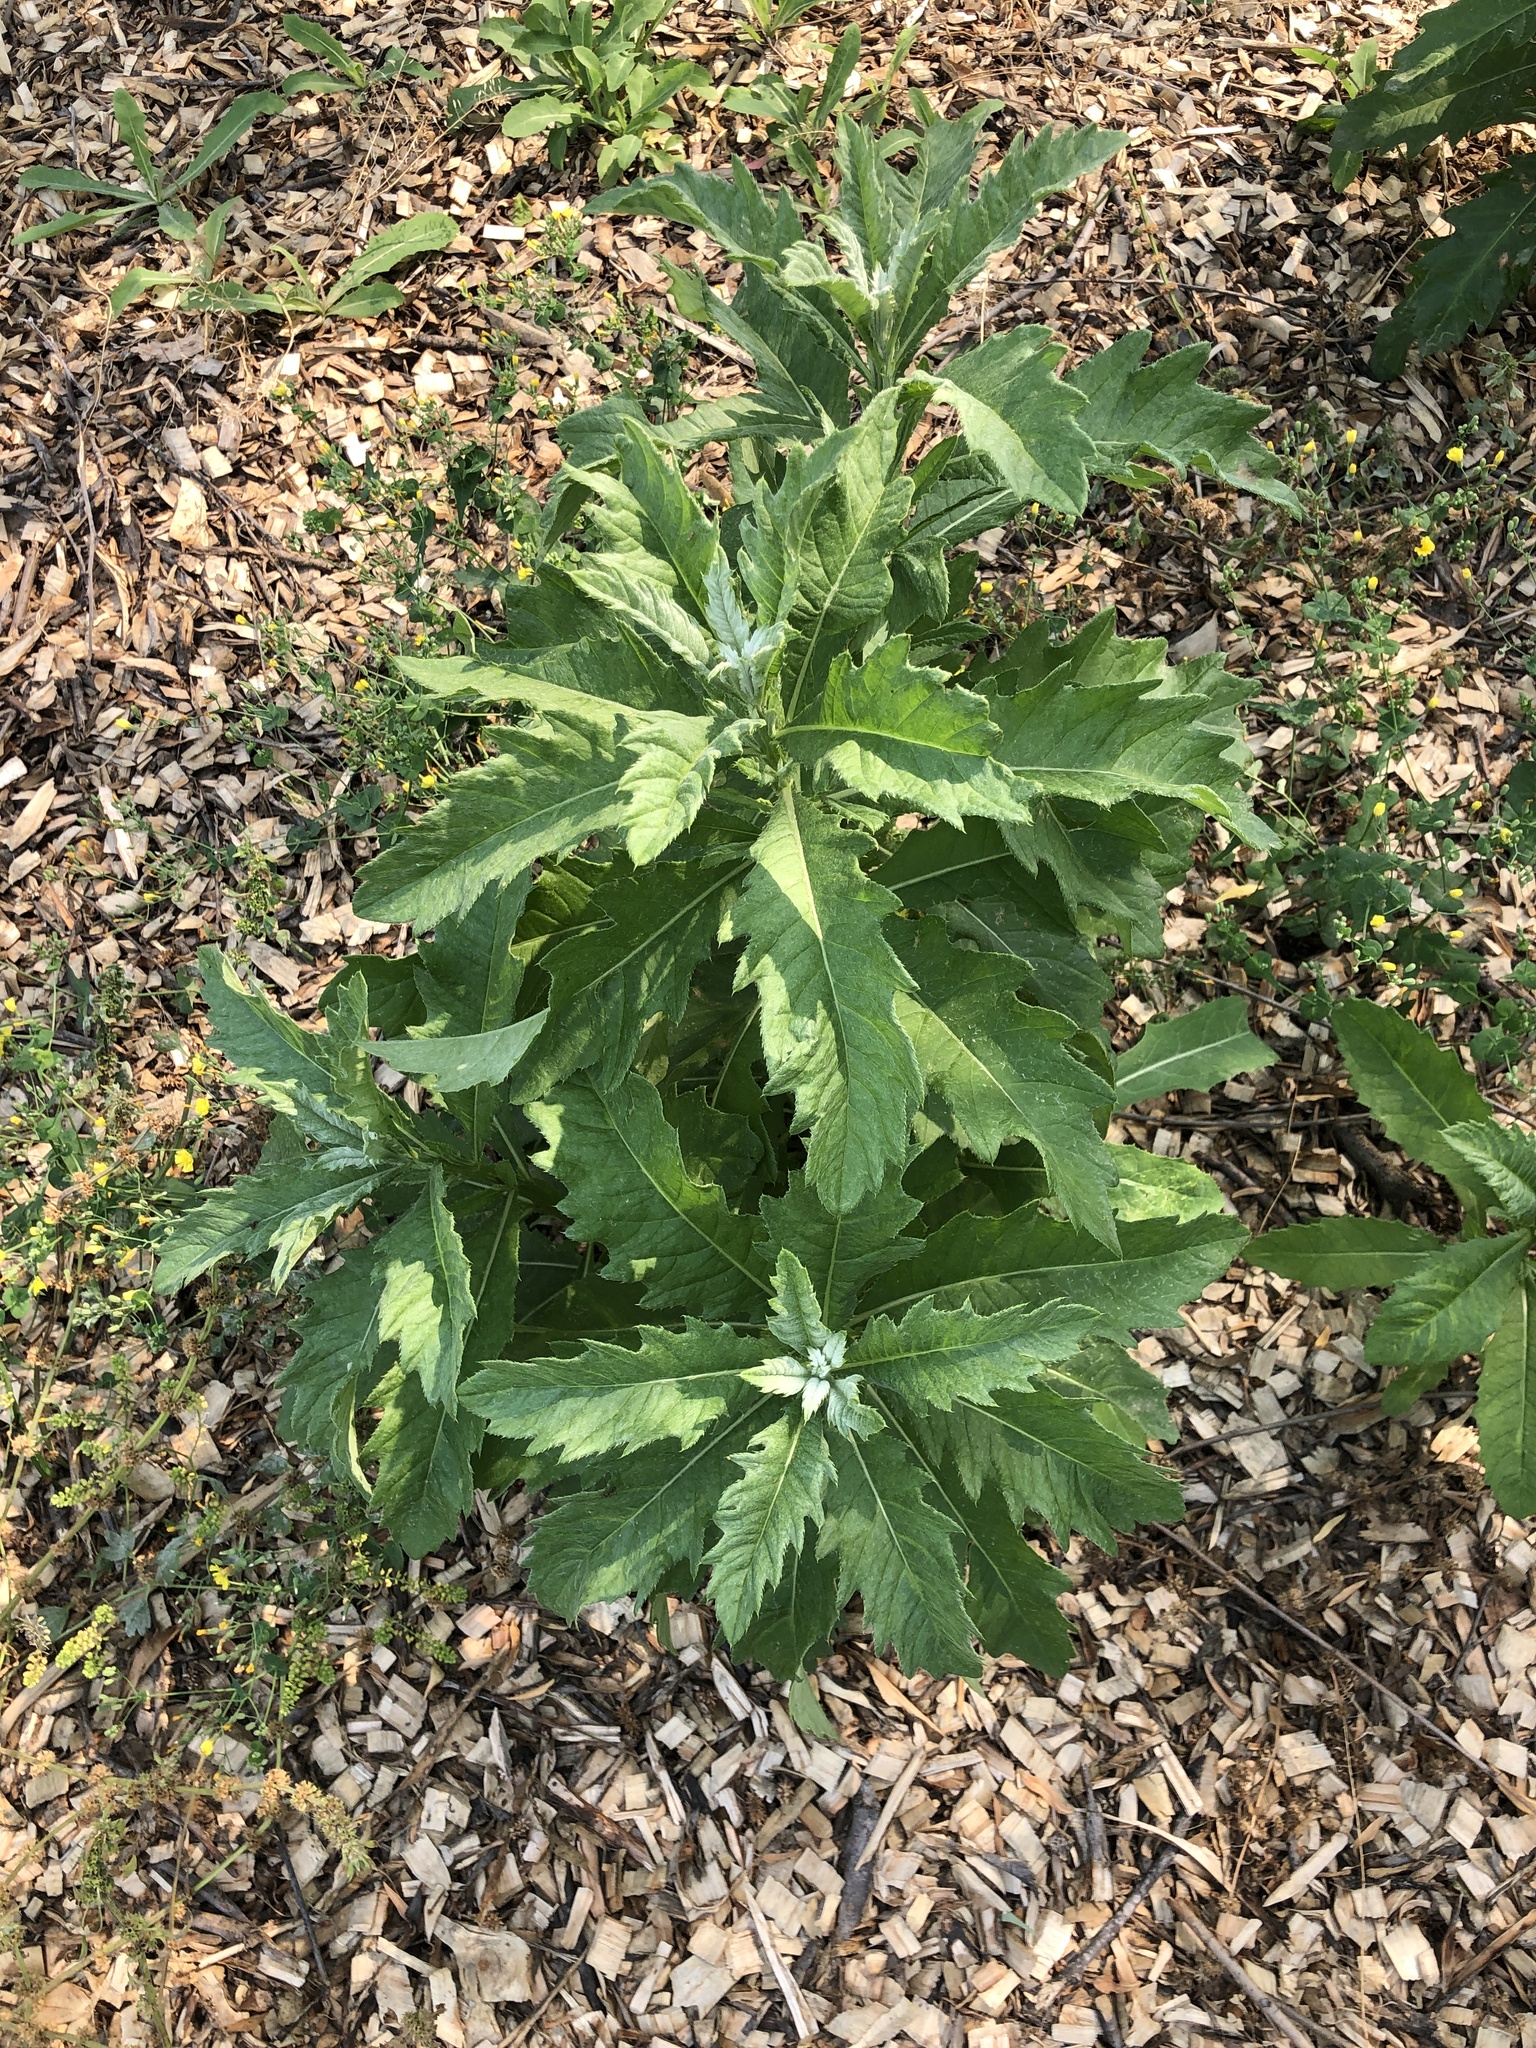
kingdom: Plantae
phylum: Tracheophyta
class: Magnoliopsida
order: Asterales
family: Asteraceae
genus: Cirsium
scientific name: Cirsium arvense
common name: Creeping thistle
